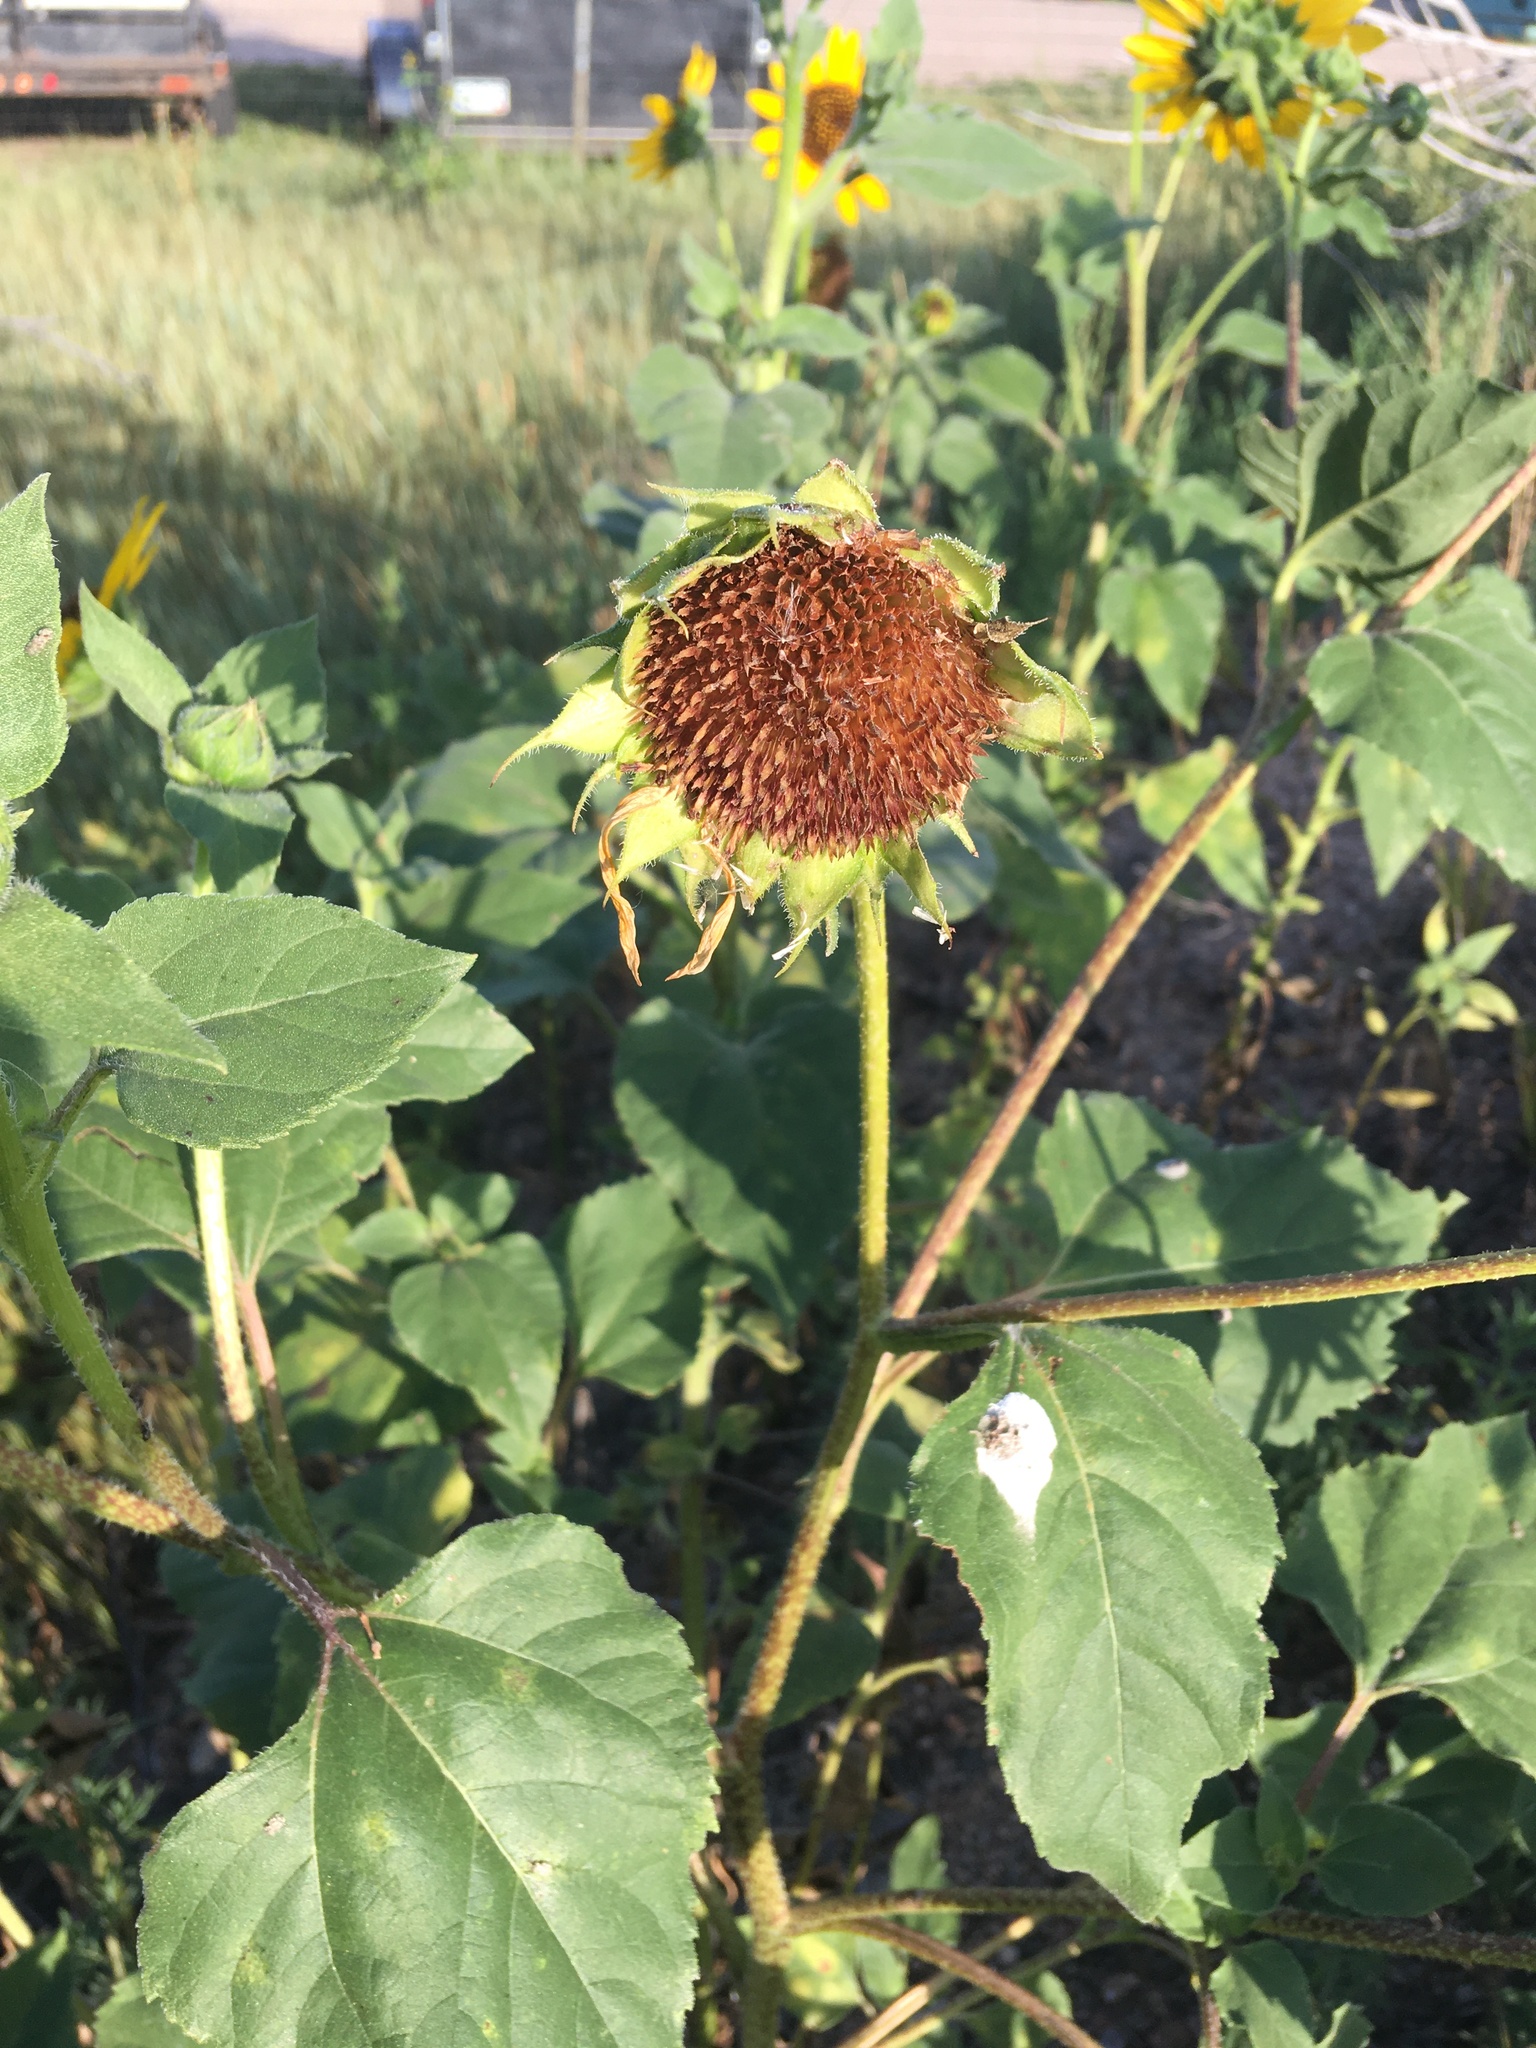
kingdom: Plantae
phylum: Tracheophyta
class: Magnoliopsida
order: Asterales
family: Asteraceae
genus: Helianthus
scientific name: Helianthus annuus
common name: Sunflower
